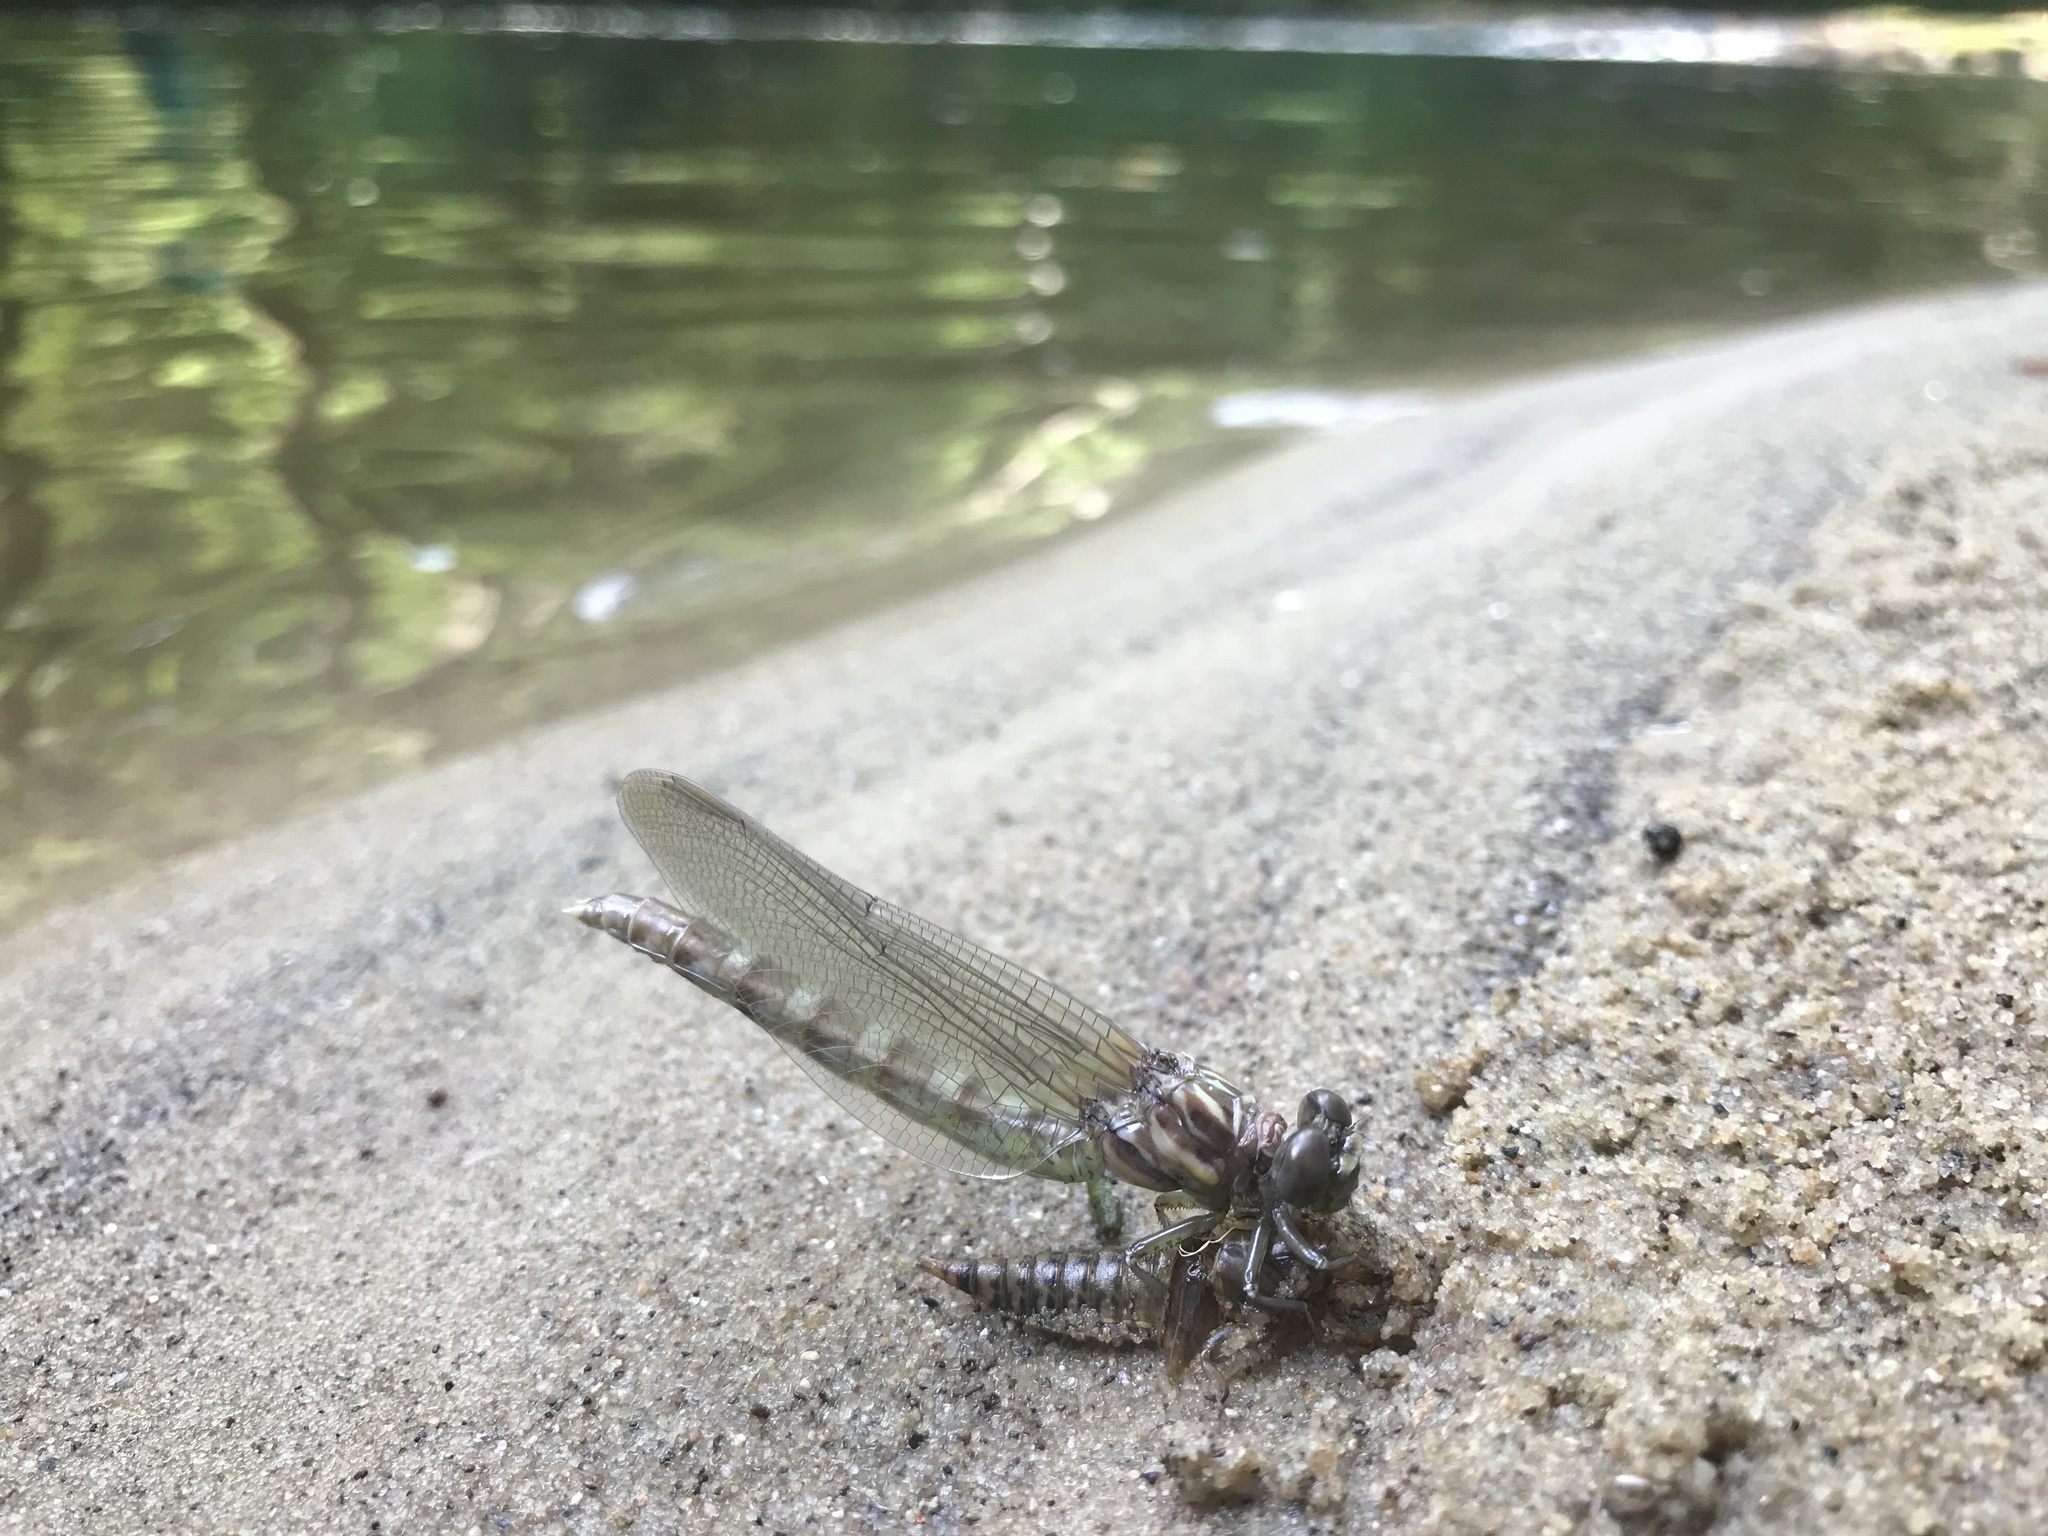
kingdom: Animalia
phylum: Arthropoda
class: Insecta
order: Odonata
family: Gomphidae
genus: Progomphus
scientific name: Progomphus obscurus
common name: Common sanddragon
